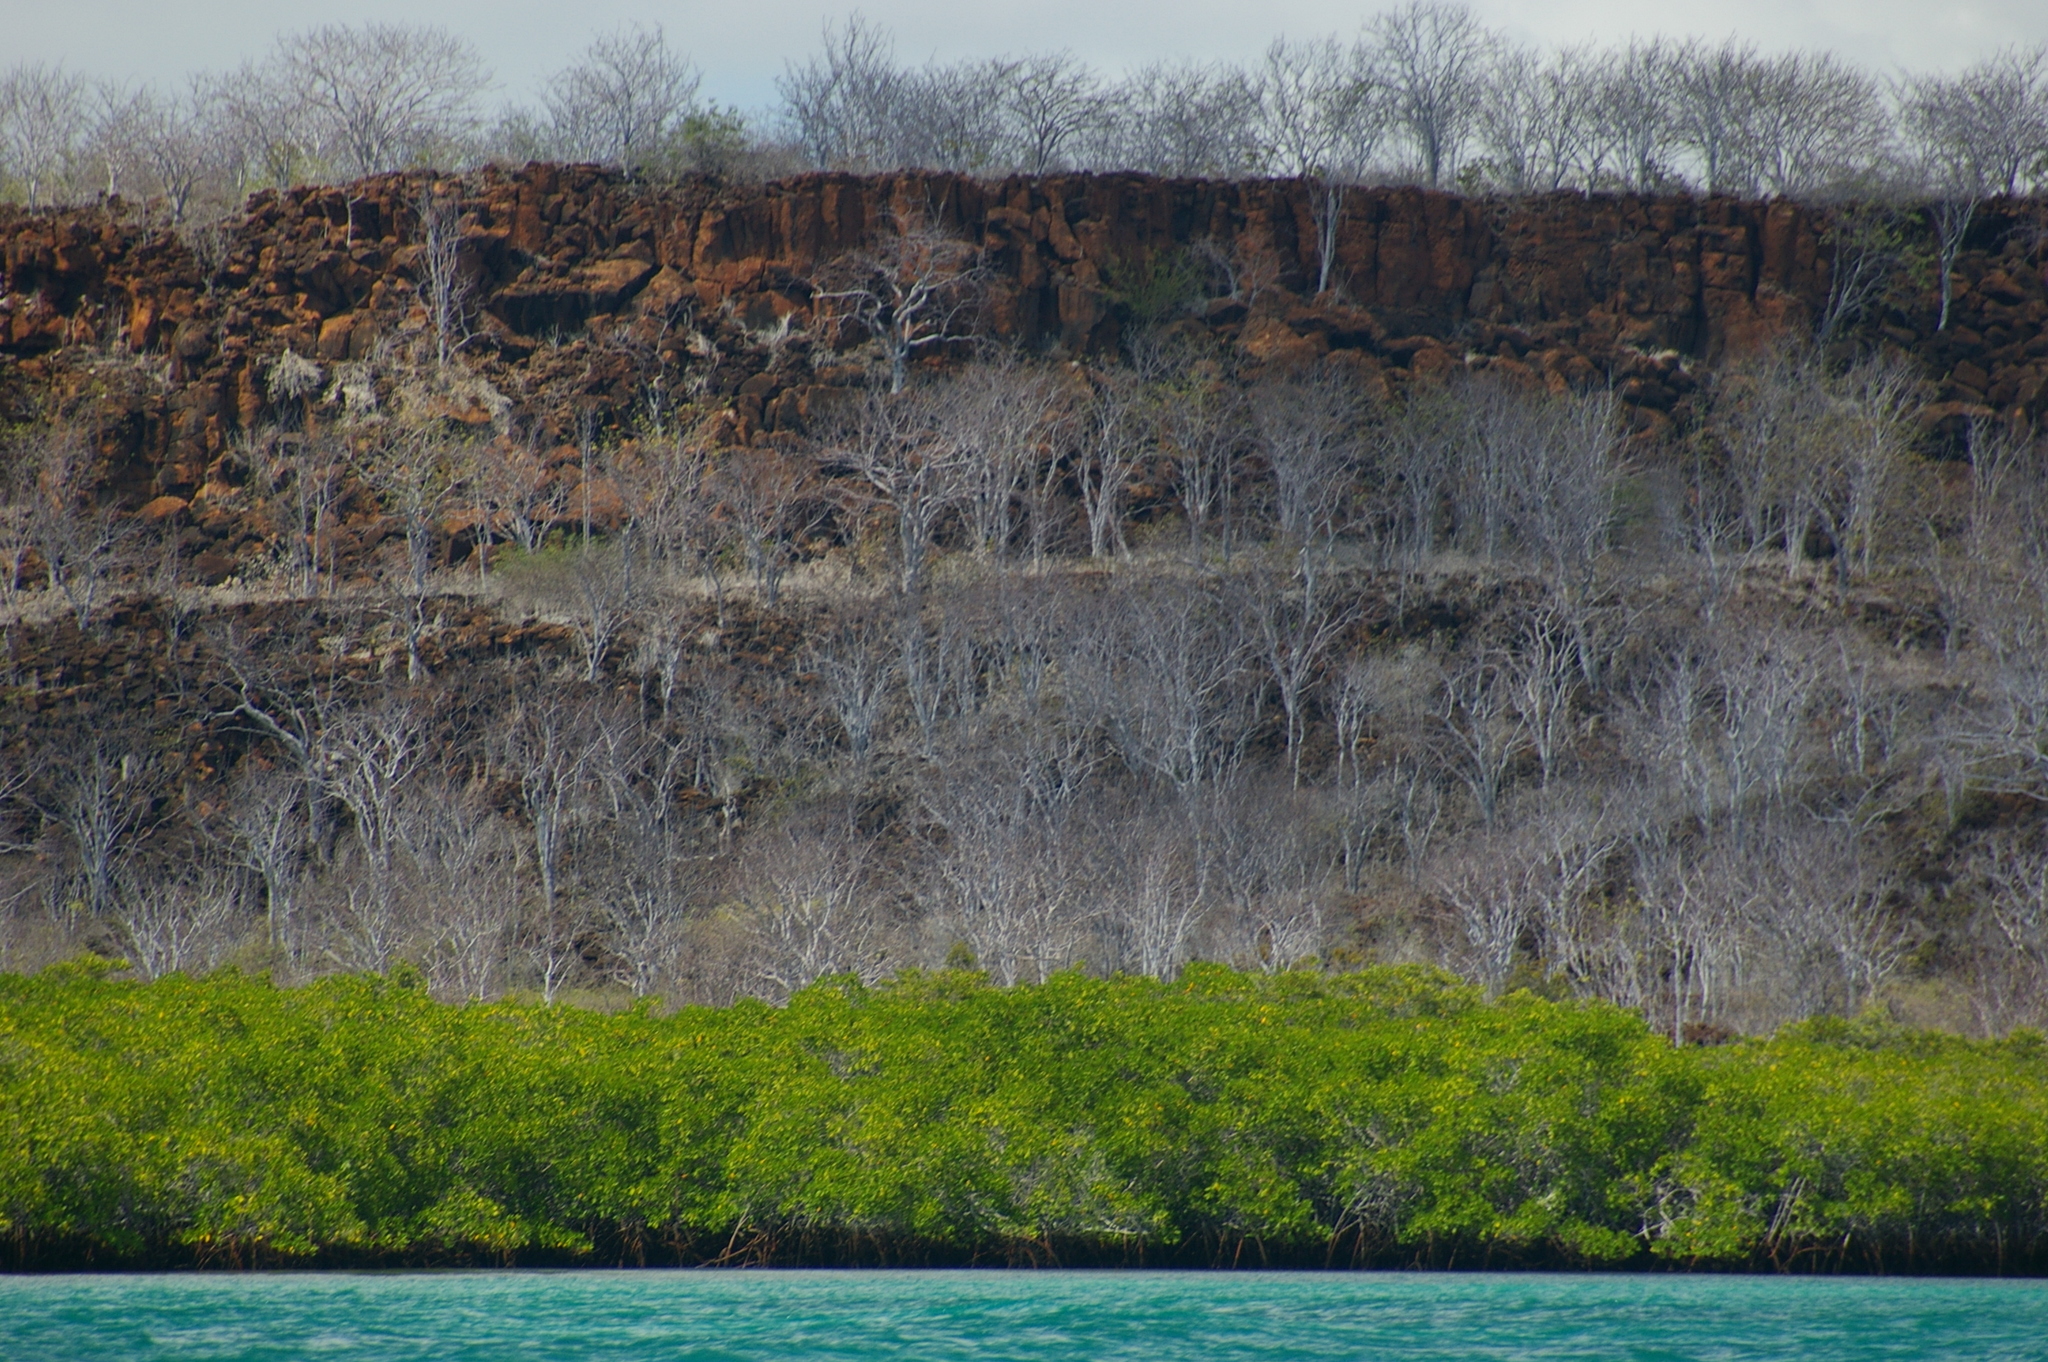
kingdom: Plantae
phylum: Tracheophyta
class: Magnoliopsida
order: Sapindales
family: Burseraceae
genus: Bursera
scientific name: Bursera graveolens
